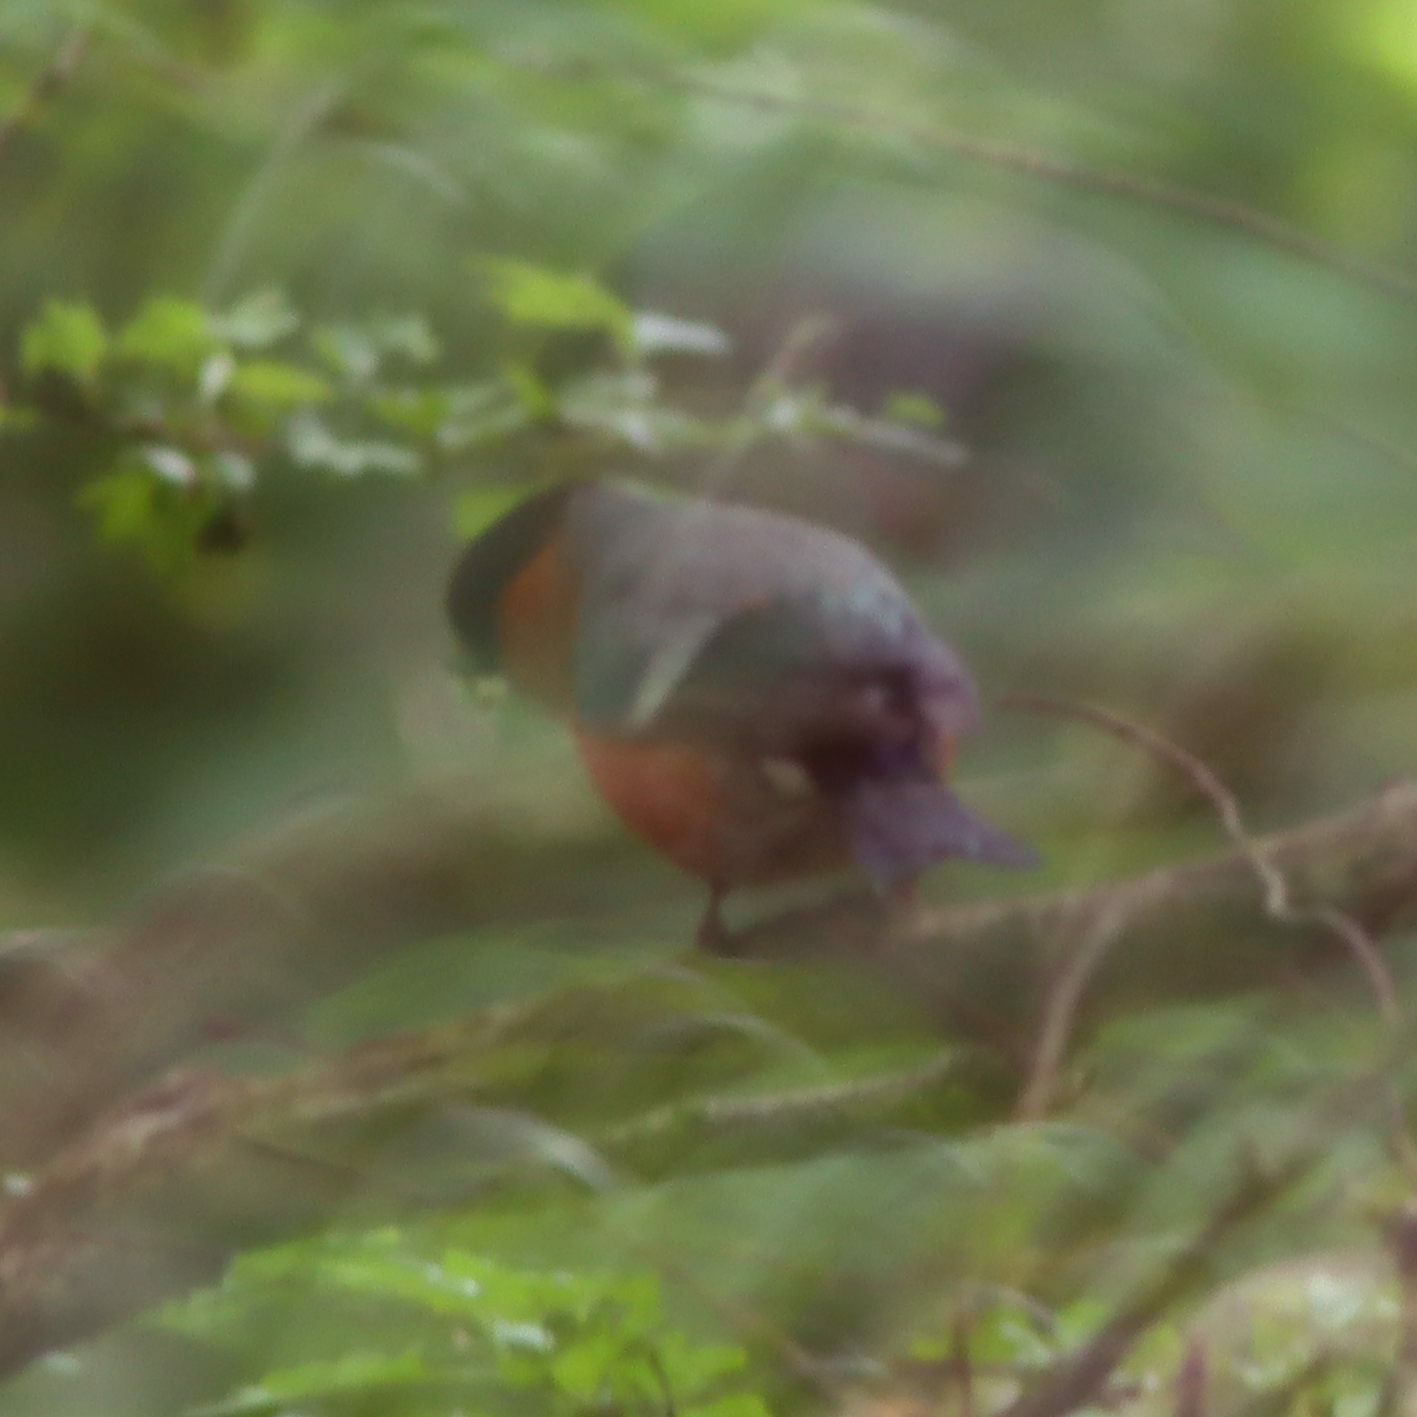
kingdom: Animalia
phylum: Chordata
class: Aves
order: Passeriformes
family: Fringillidae
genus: Pyrrhula
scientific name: Pyrrhula pyrrhula
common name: Eurasian bullfinch
